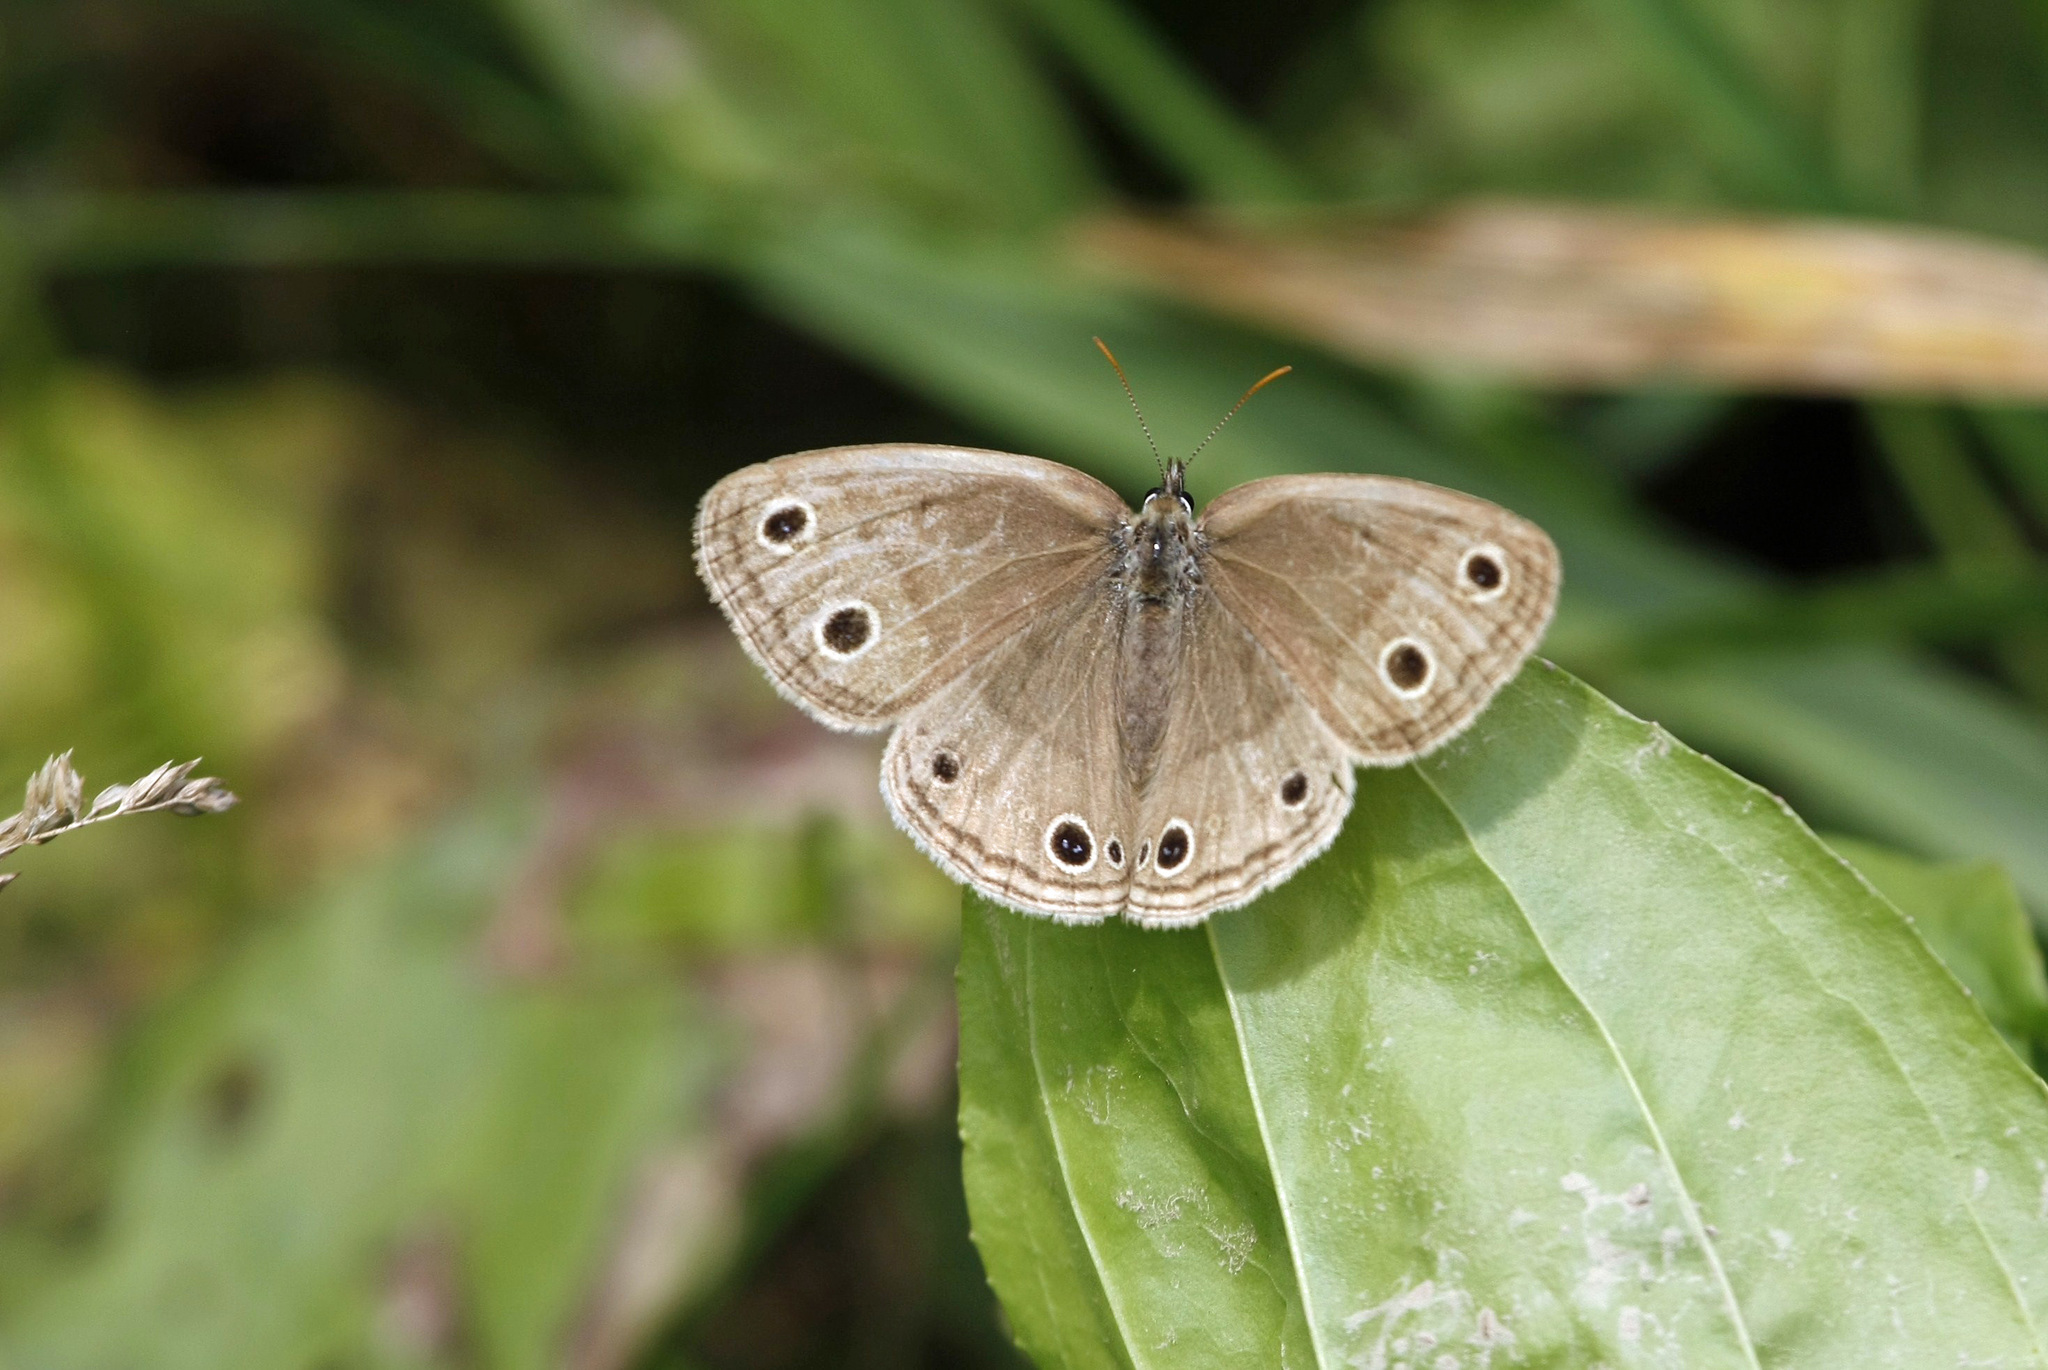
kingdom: Animalia
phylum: Arthropoda
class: Insecta
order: Lepidoptera
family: Nymphalidae
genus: Euptychia
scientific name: Euptychia cymela
